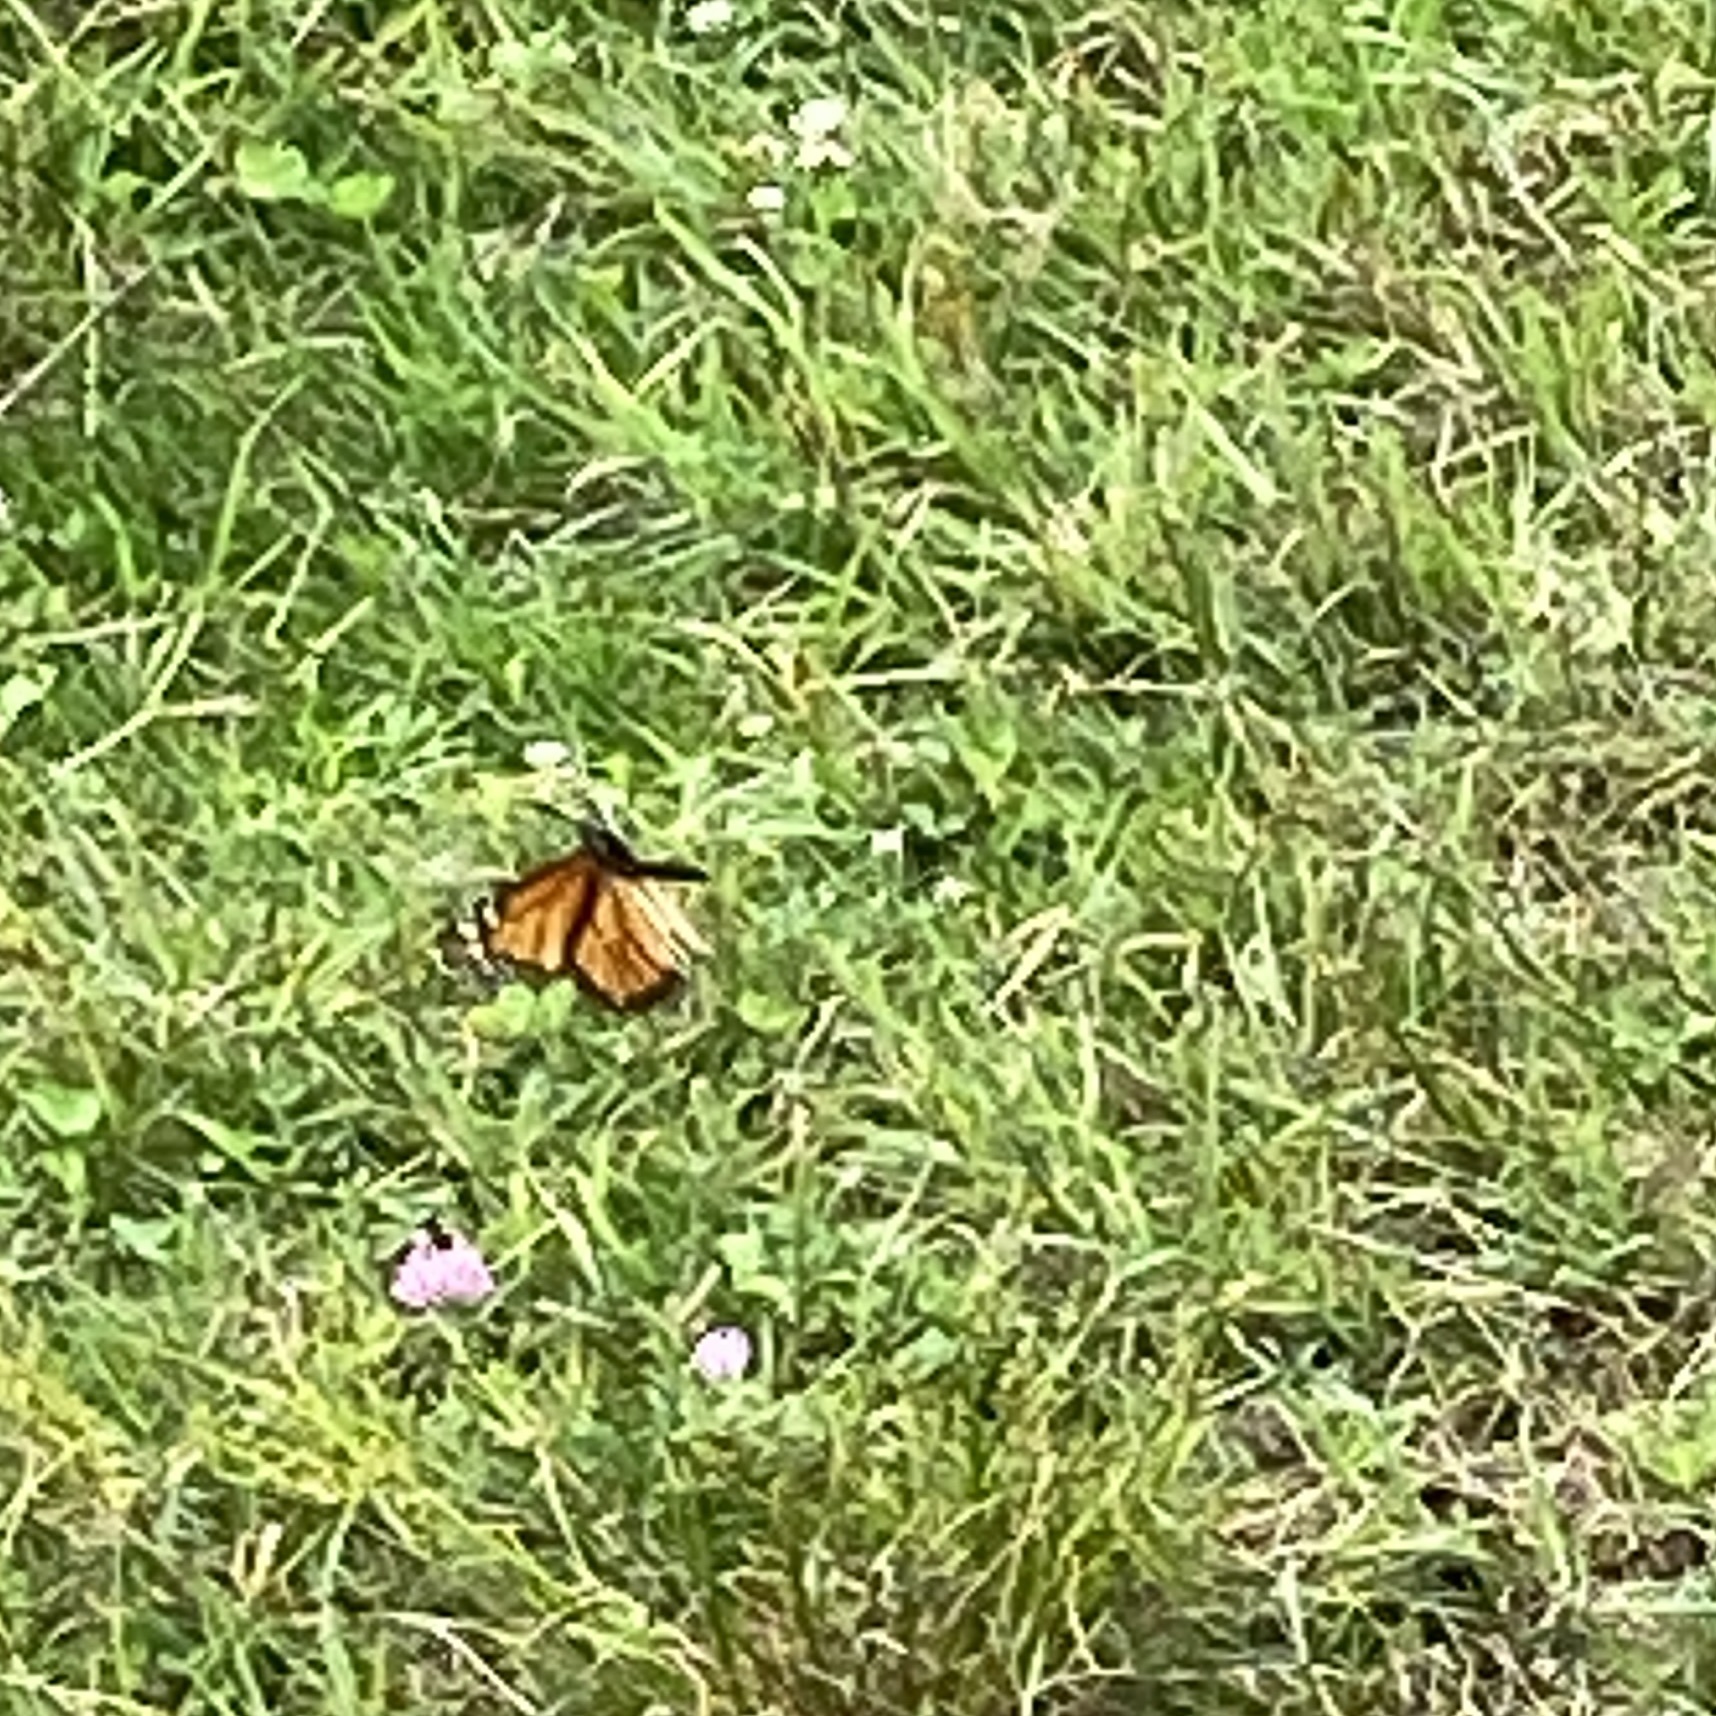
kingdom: Animalia
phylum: Arthropoda
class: Insecta
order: Lepidoptera
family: Nymphalidae
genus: Danaus
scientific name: Danaus plexippus
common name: Monarch
